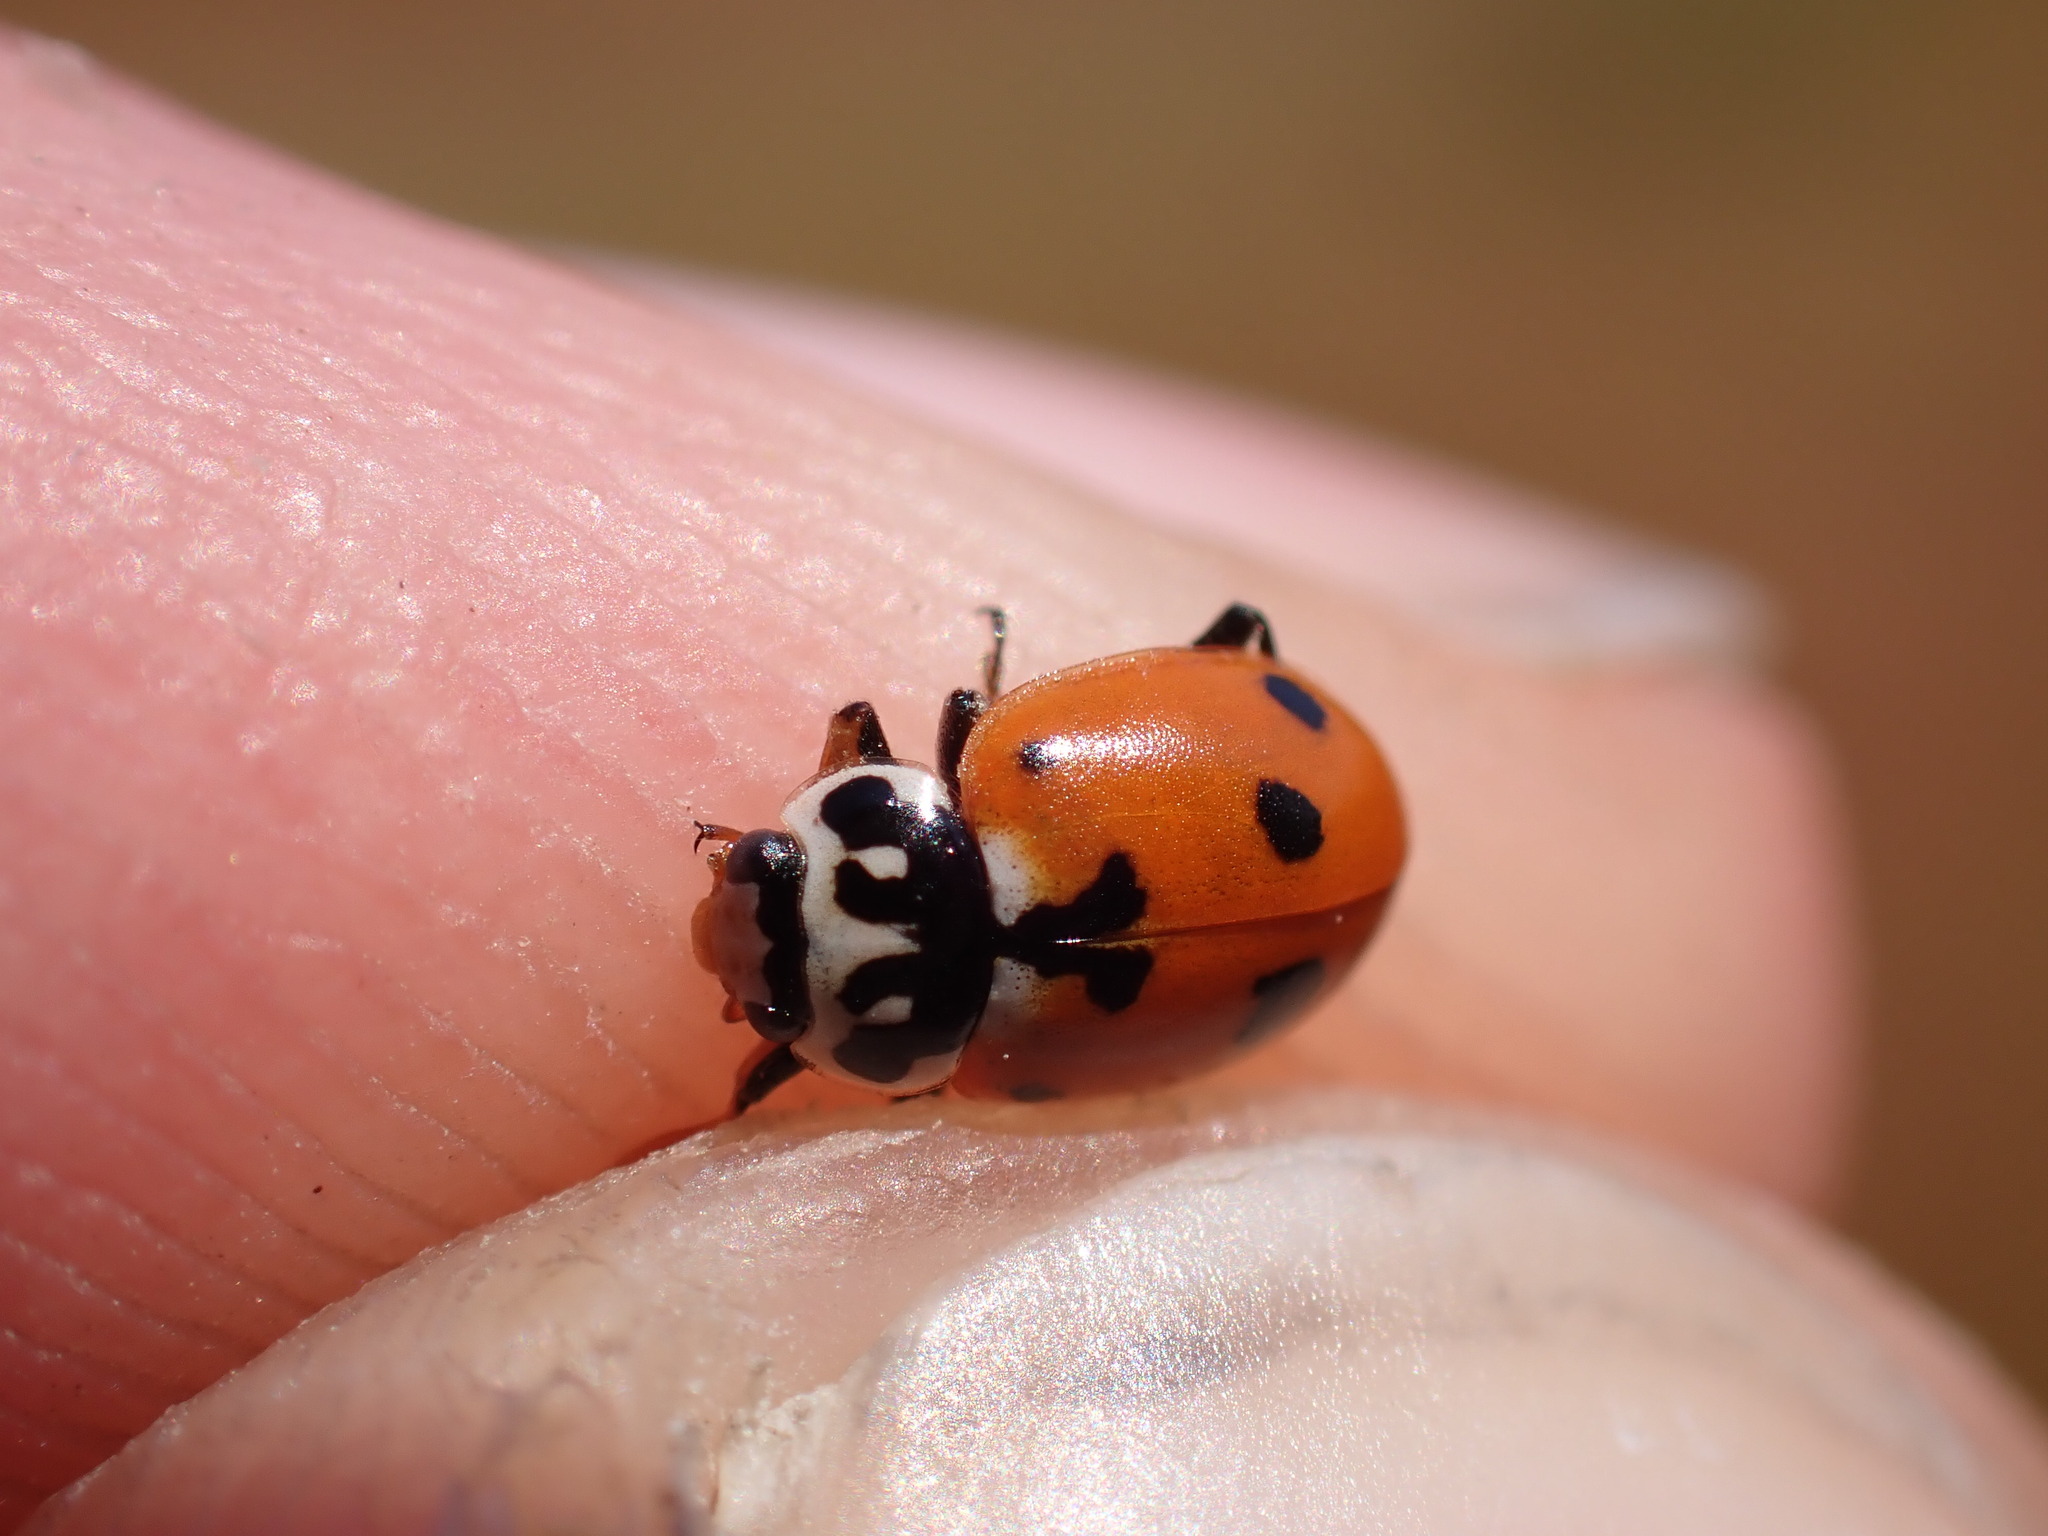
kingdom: Animalia
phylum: Arthropoda
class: Insecta
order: Coleoptera
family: Coccinellidae
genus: Hippodamia
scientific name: Hippodamia variegata
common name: Ladybird beetle
